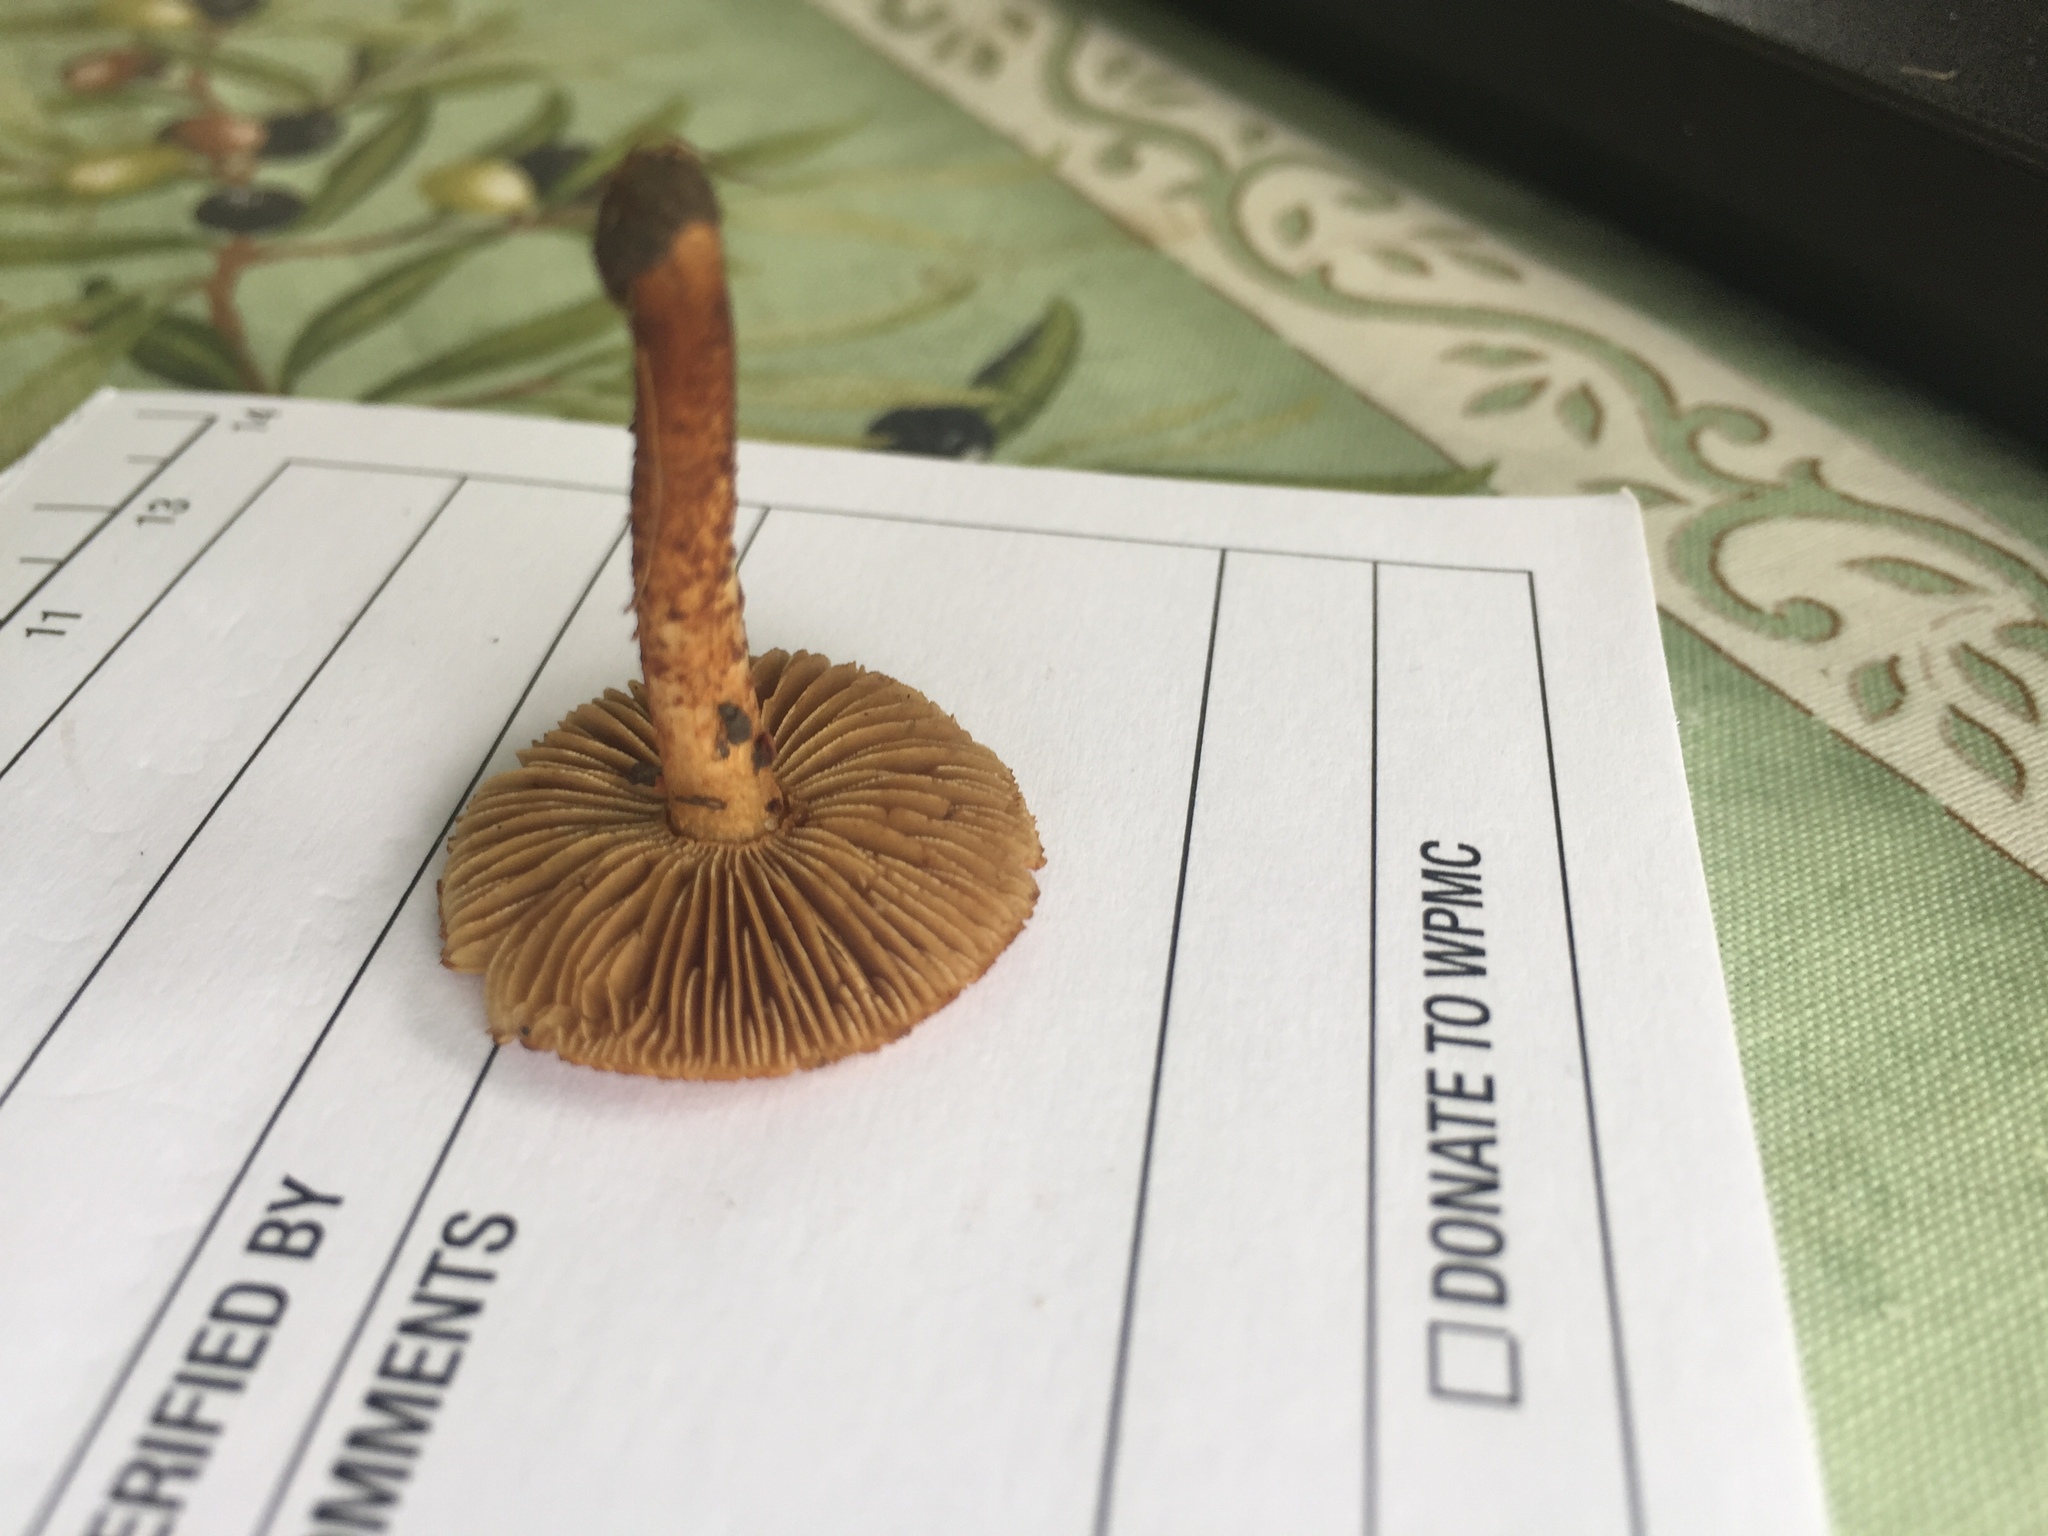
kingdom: Fungi
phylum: Basidiomycota
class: Agaricomycetes
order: Agaricales
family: Inocybaceae
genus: Mallocybe
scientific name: Mallocybe unicolor
